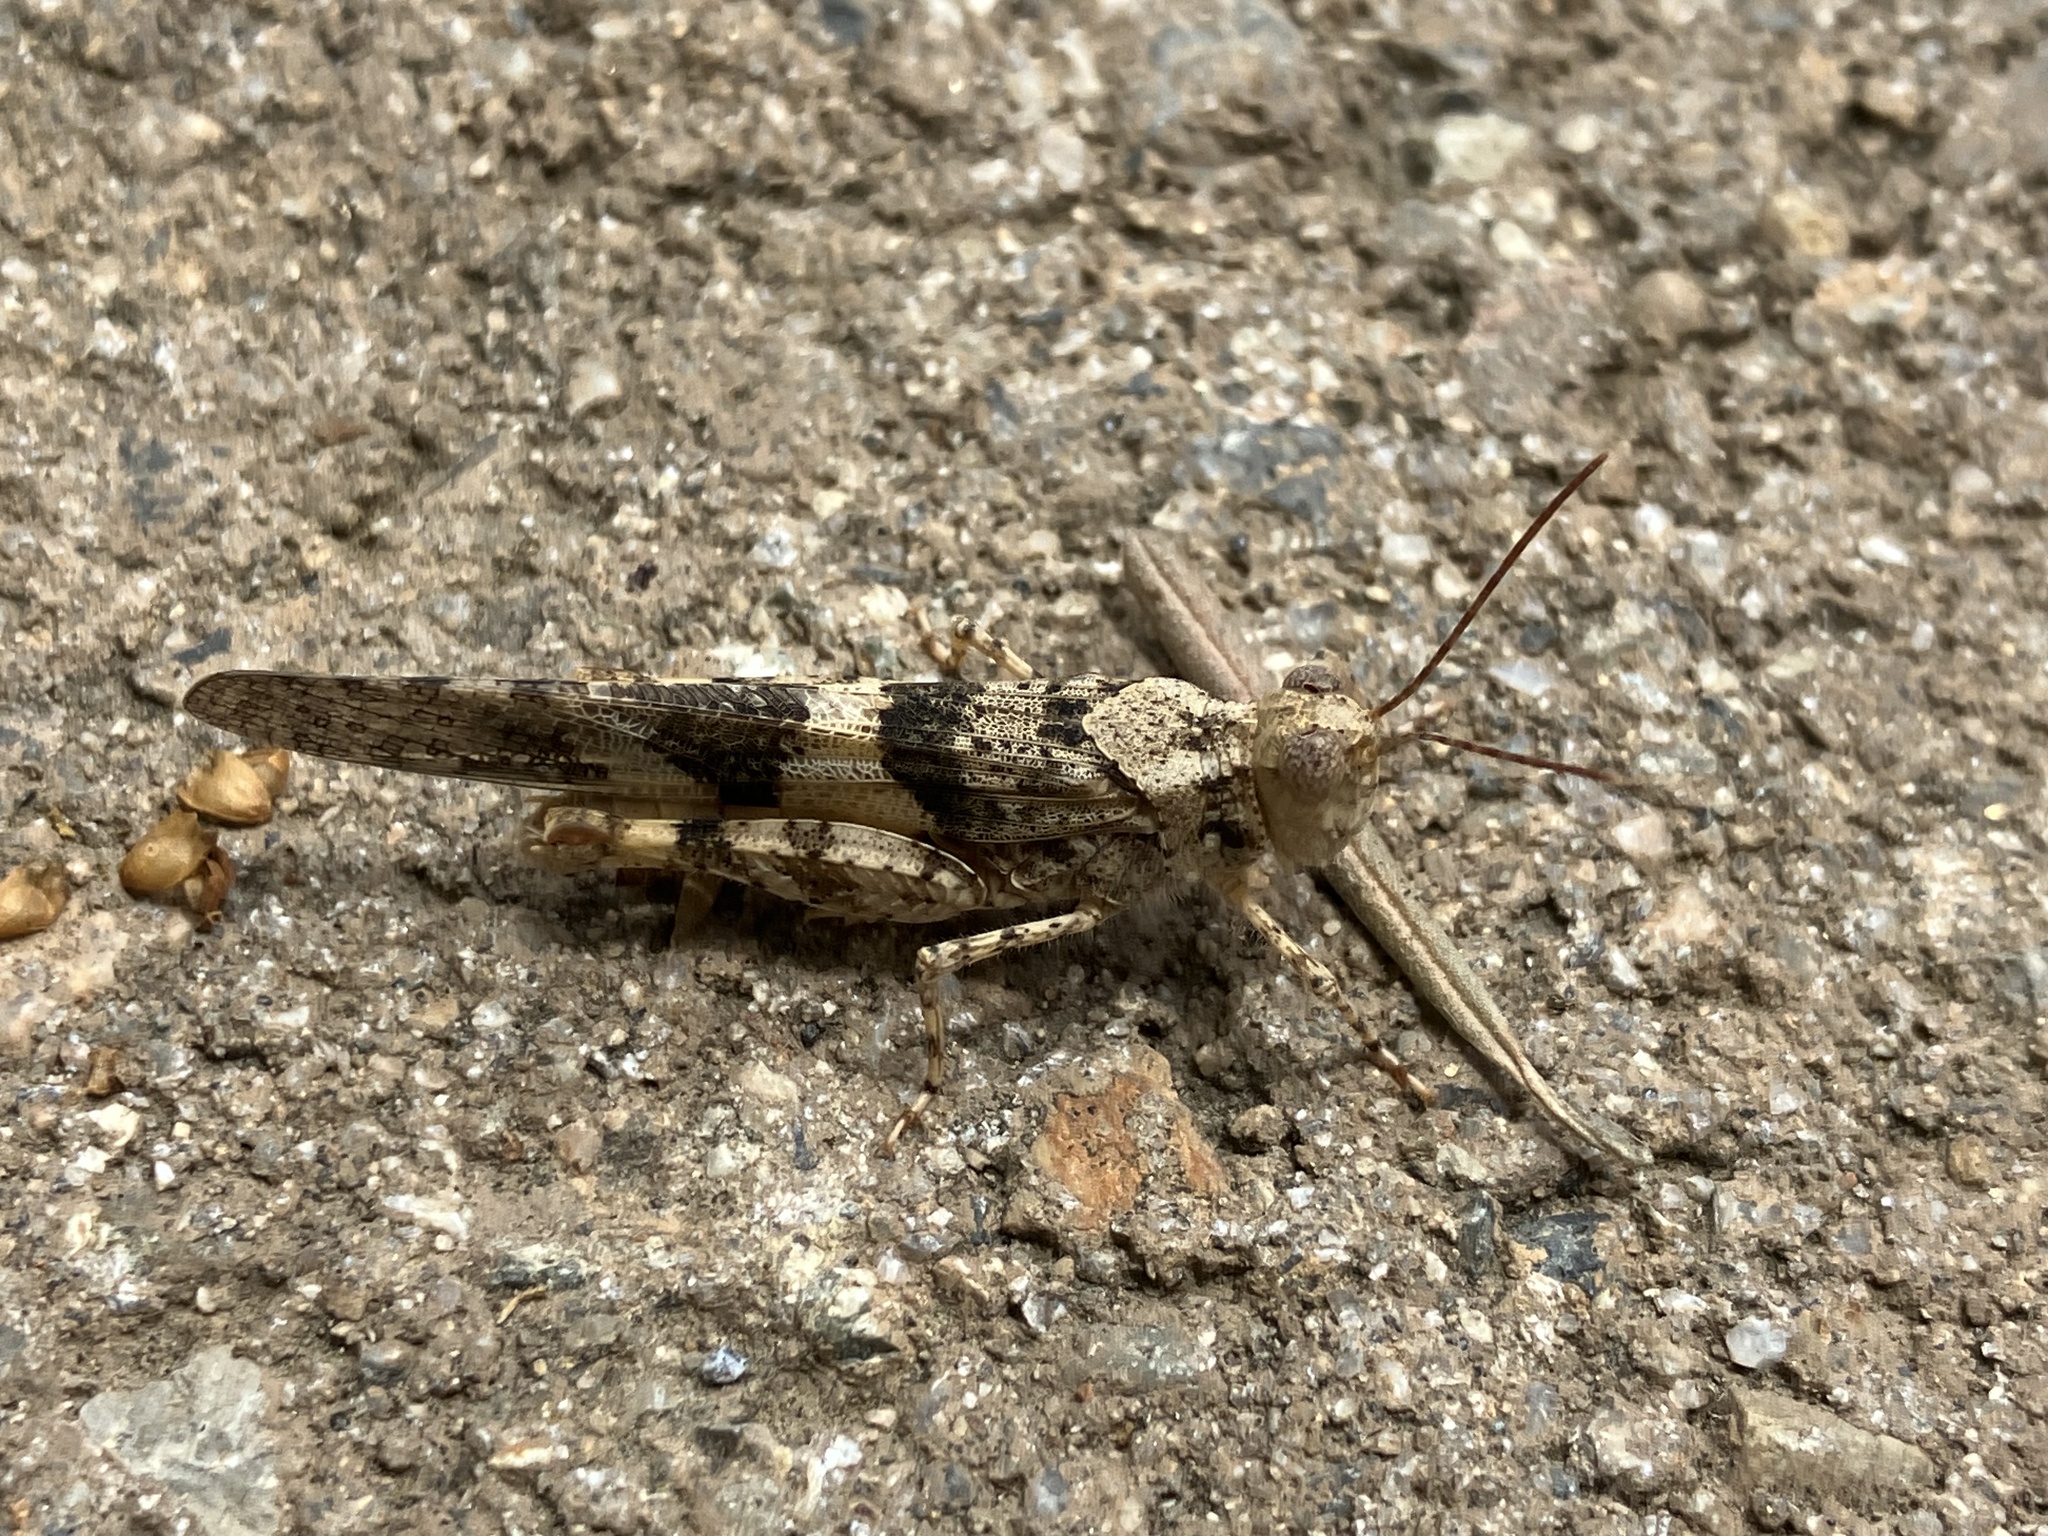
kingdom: Animalia
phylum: Arthropoda
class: Insecta
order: Orthoptera
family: Acrididae
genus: Trimerotropis
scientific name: Trimerotropis pallidipennis
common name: Pallid-winged grasshopper
